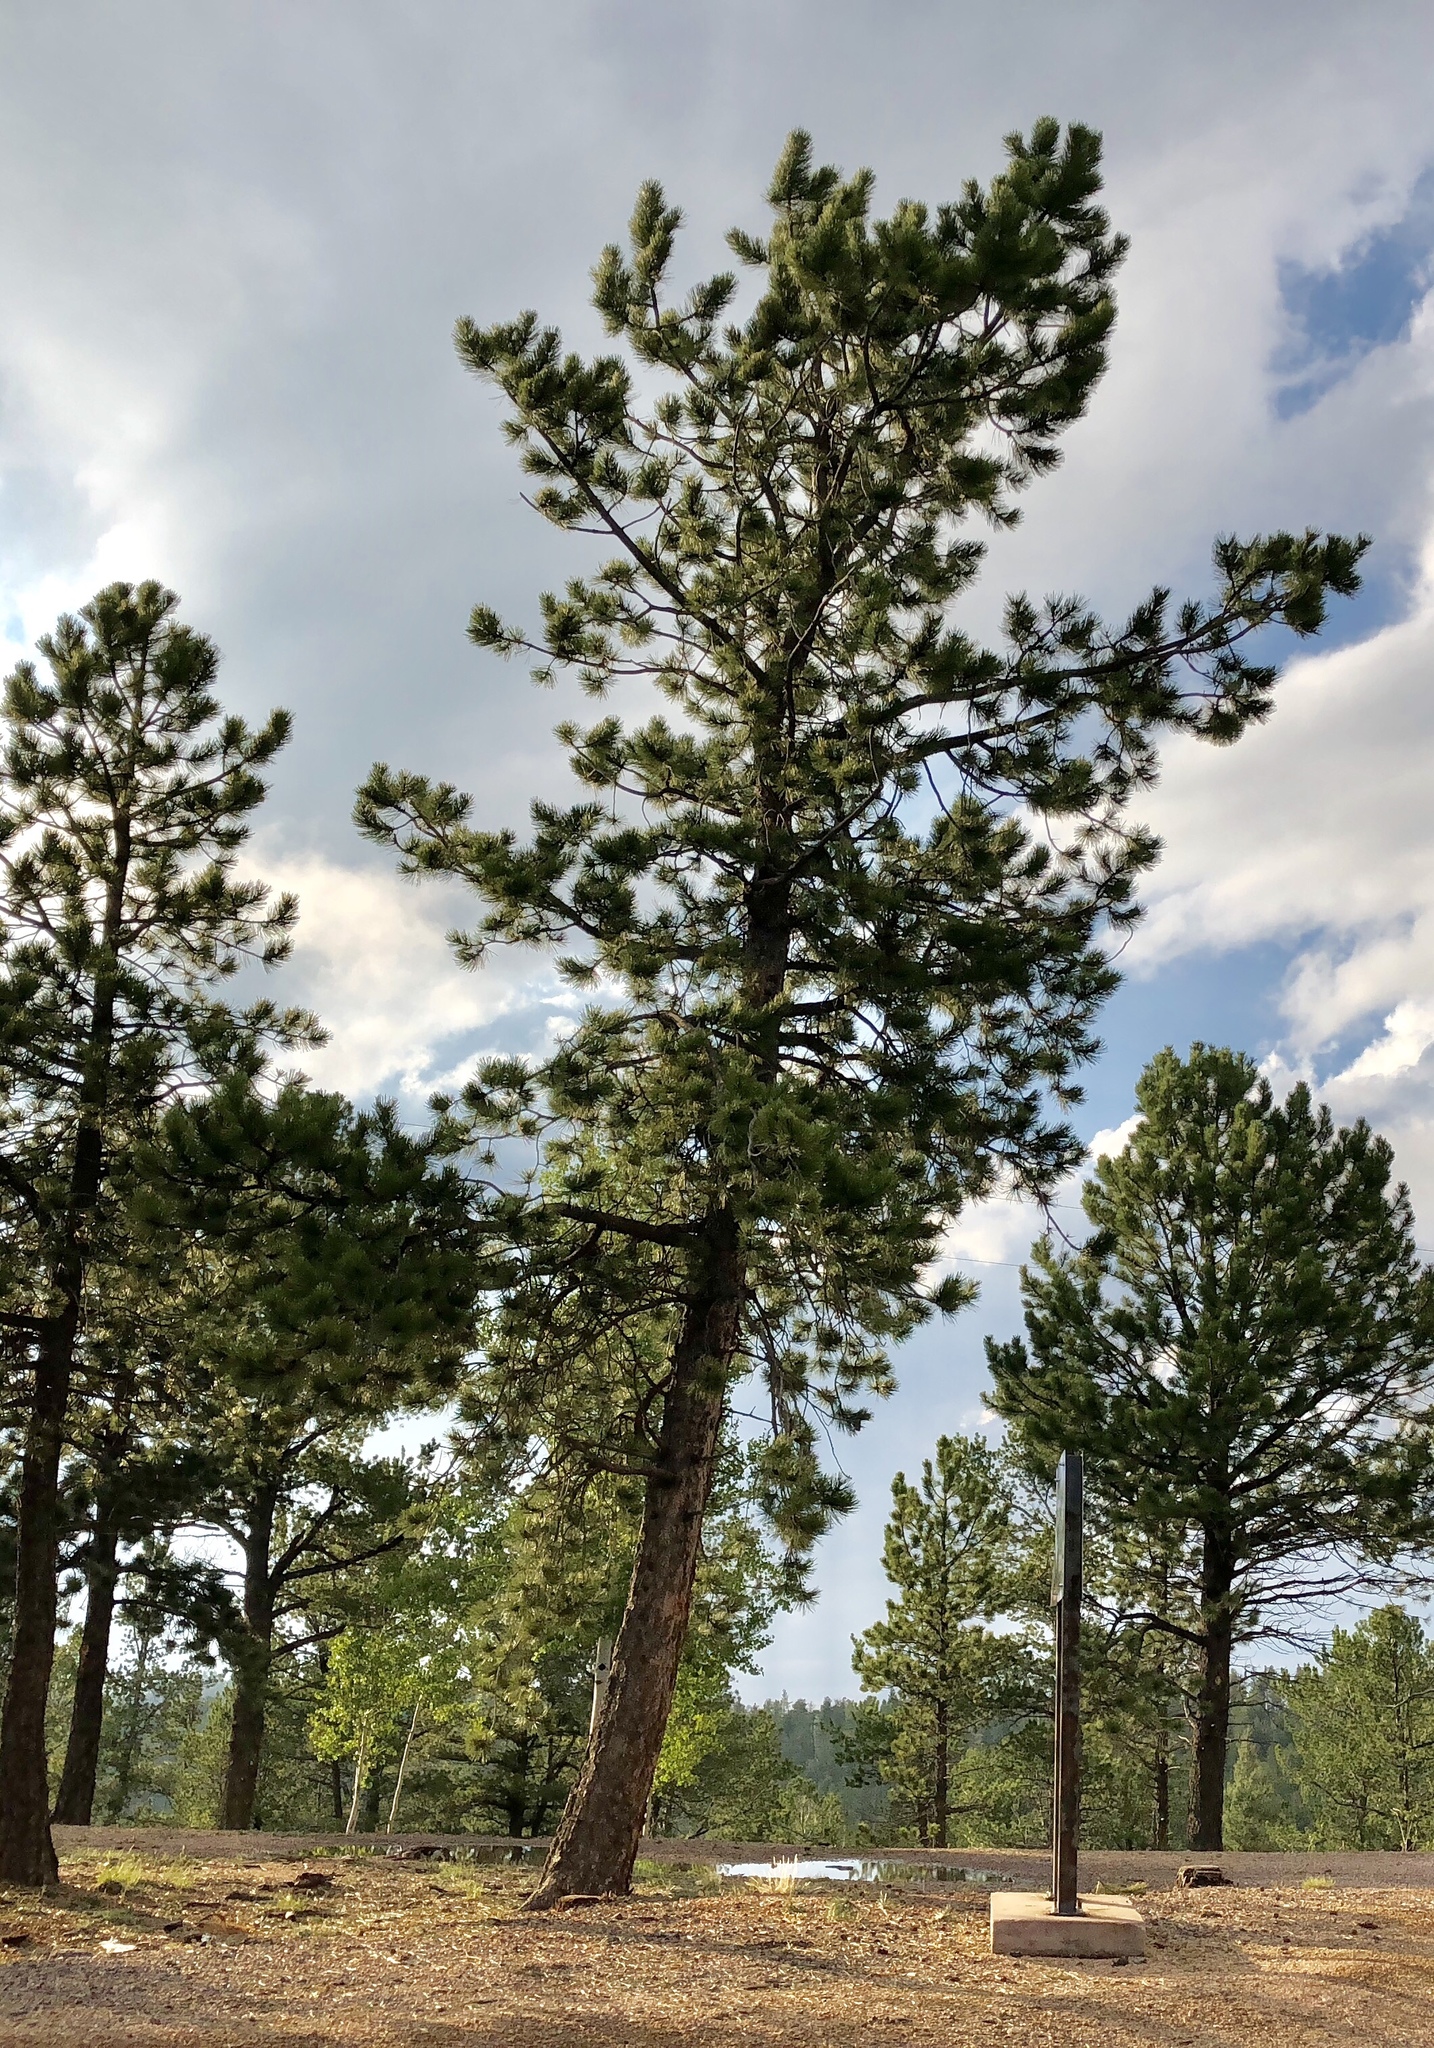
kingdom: Plantae
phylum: Tracheophyta
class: Pinopsida
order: Pinales
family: Pinaceae
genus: Pinus
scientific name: Pinus ponderosa
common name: Western yellow-pine
